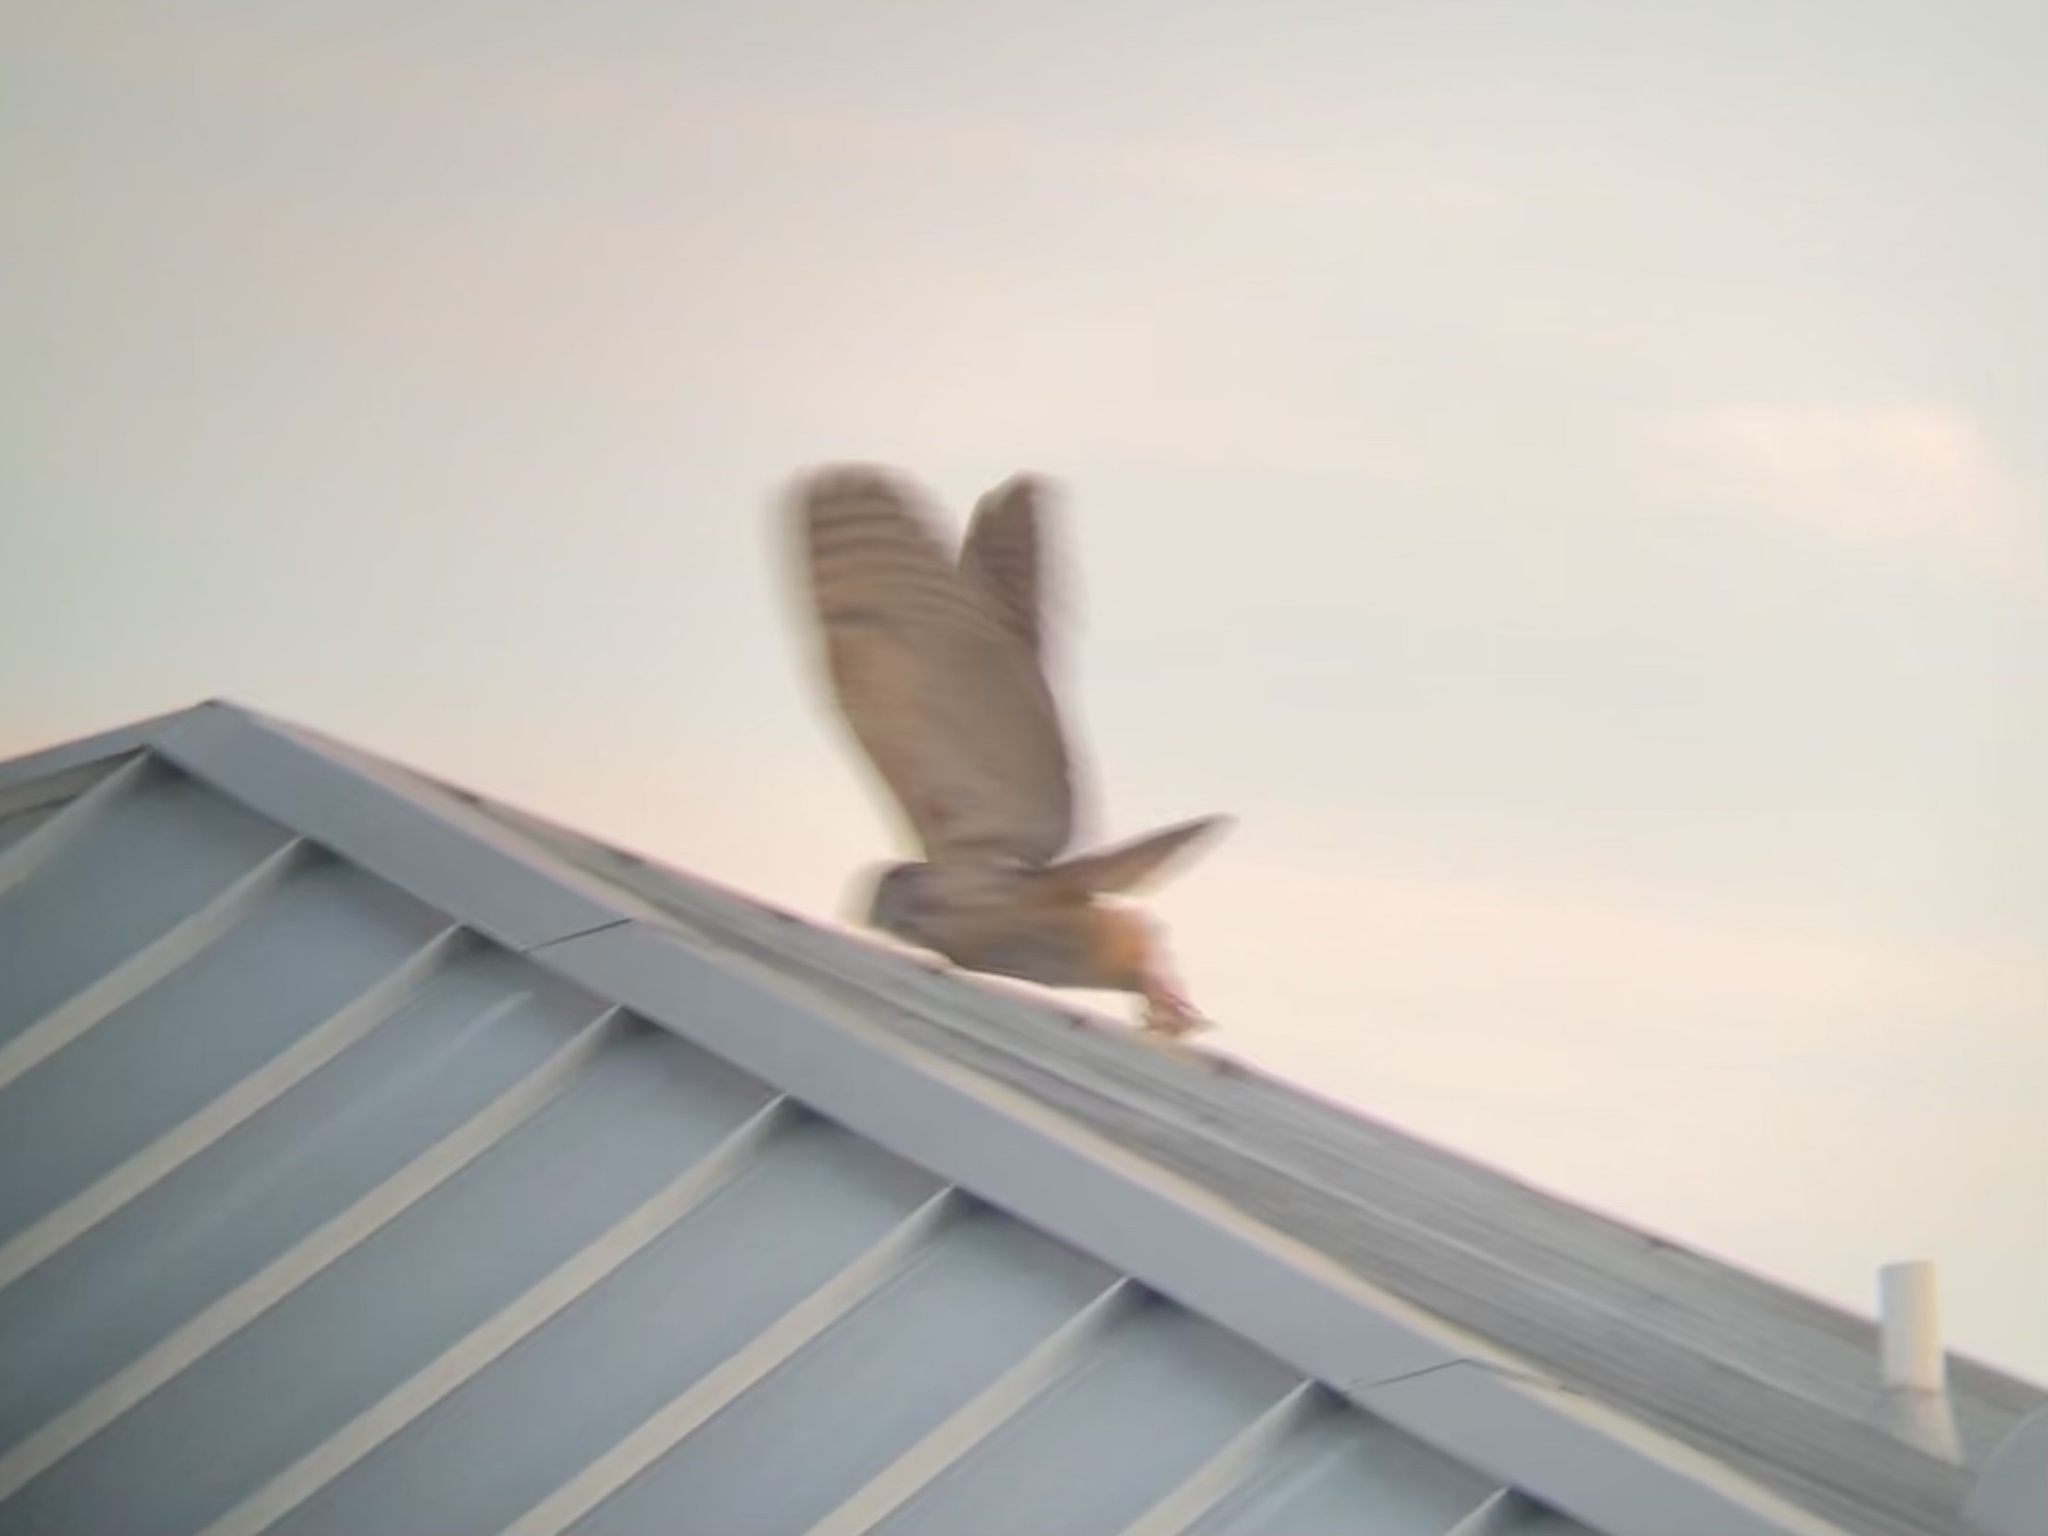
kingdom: Animalia
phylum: Chordata
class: Aves
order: Strigiformes
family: Strigidae
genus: Bubo
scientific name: Bubo virginianus
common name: Great horned owl
